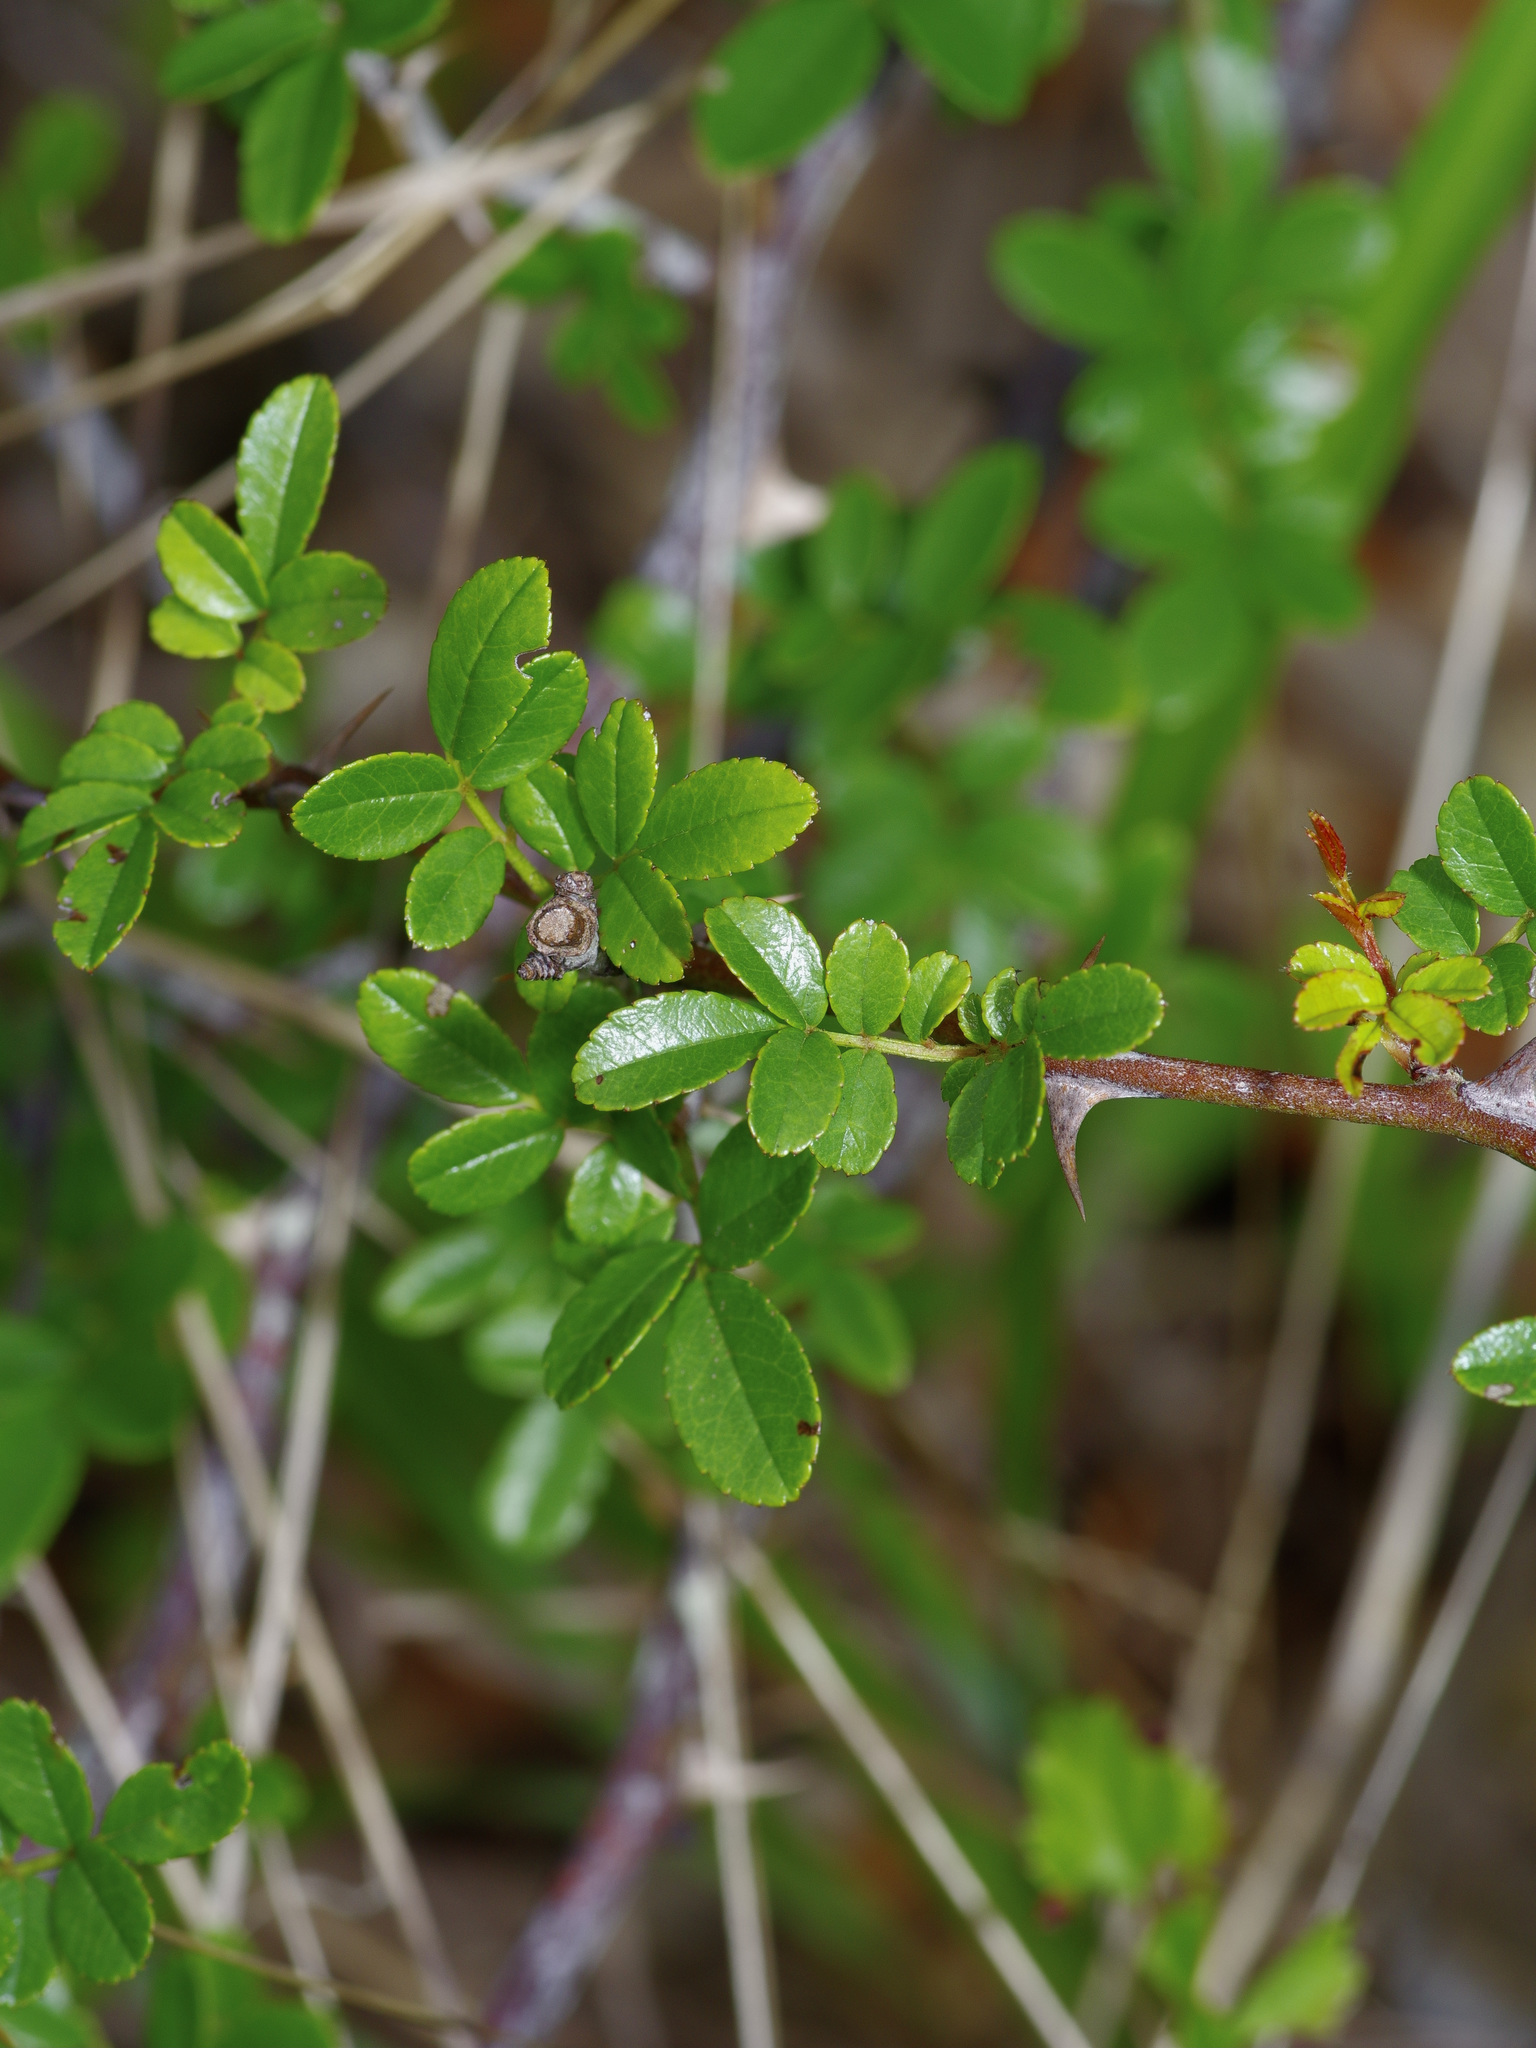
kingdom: Plantae
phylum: Tracheophyta
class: Magnoliopsida
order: Rosales
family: Rosaceae
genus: Rosa
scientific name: Rosa bracteata
